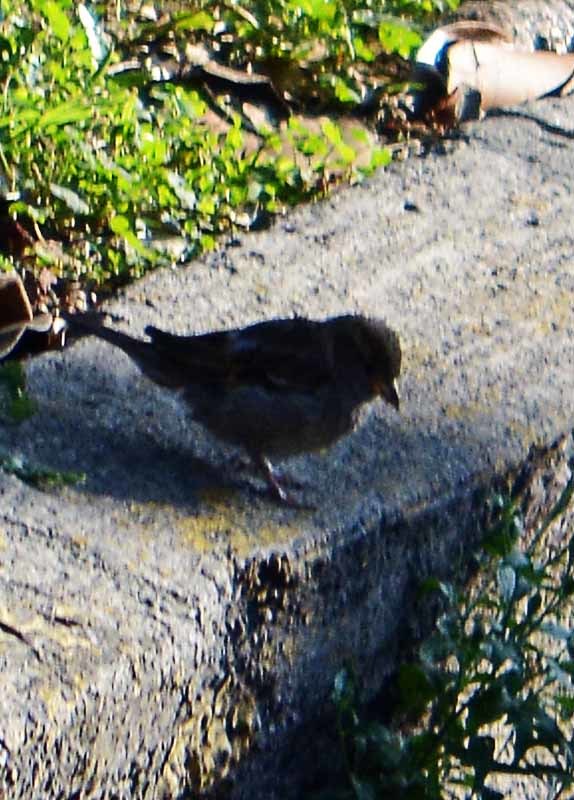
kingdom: Animalia
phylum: Chordata
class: Aves
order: Passeriformes
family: Passeridae
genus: Passer
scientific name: Passer domesticus
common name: House sparrow
